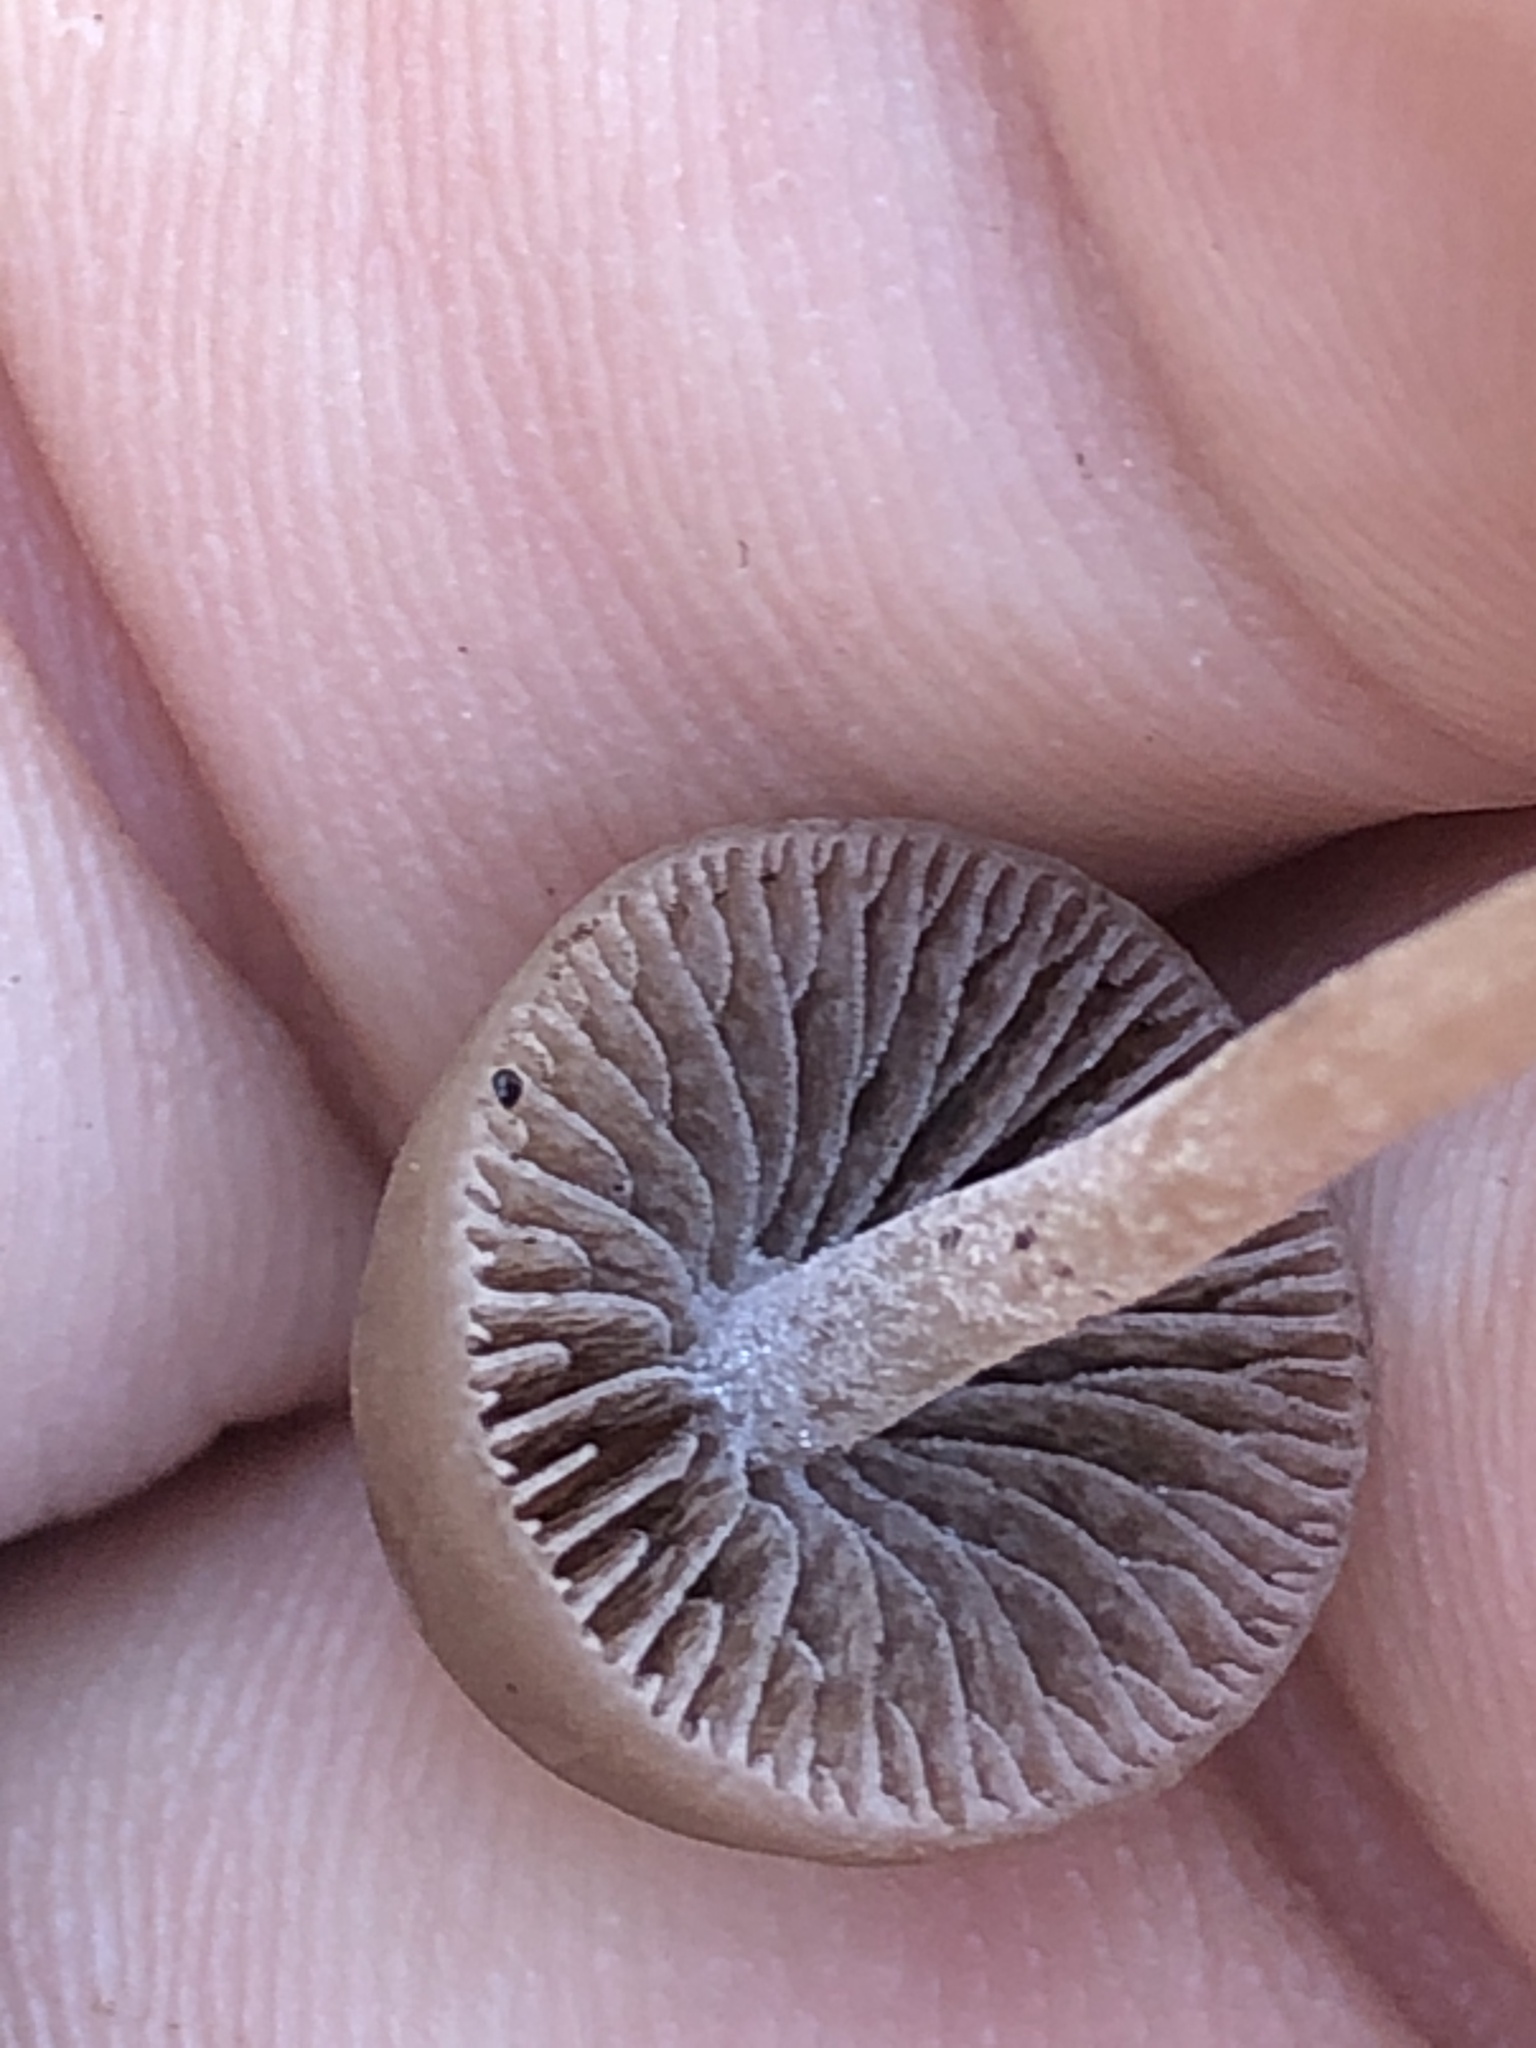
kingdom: Fungi
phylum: Basidiomycota
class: Agaricomycetes
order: Agaricales
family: Bolbitiaceae
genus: Panaeolina
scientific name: Panaeolina foenisecii
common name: Brown hay cap
